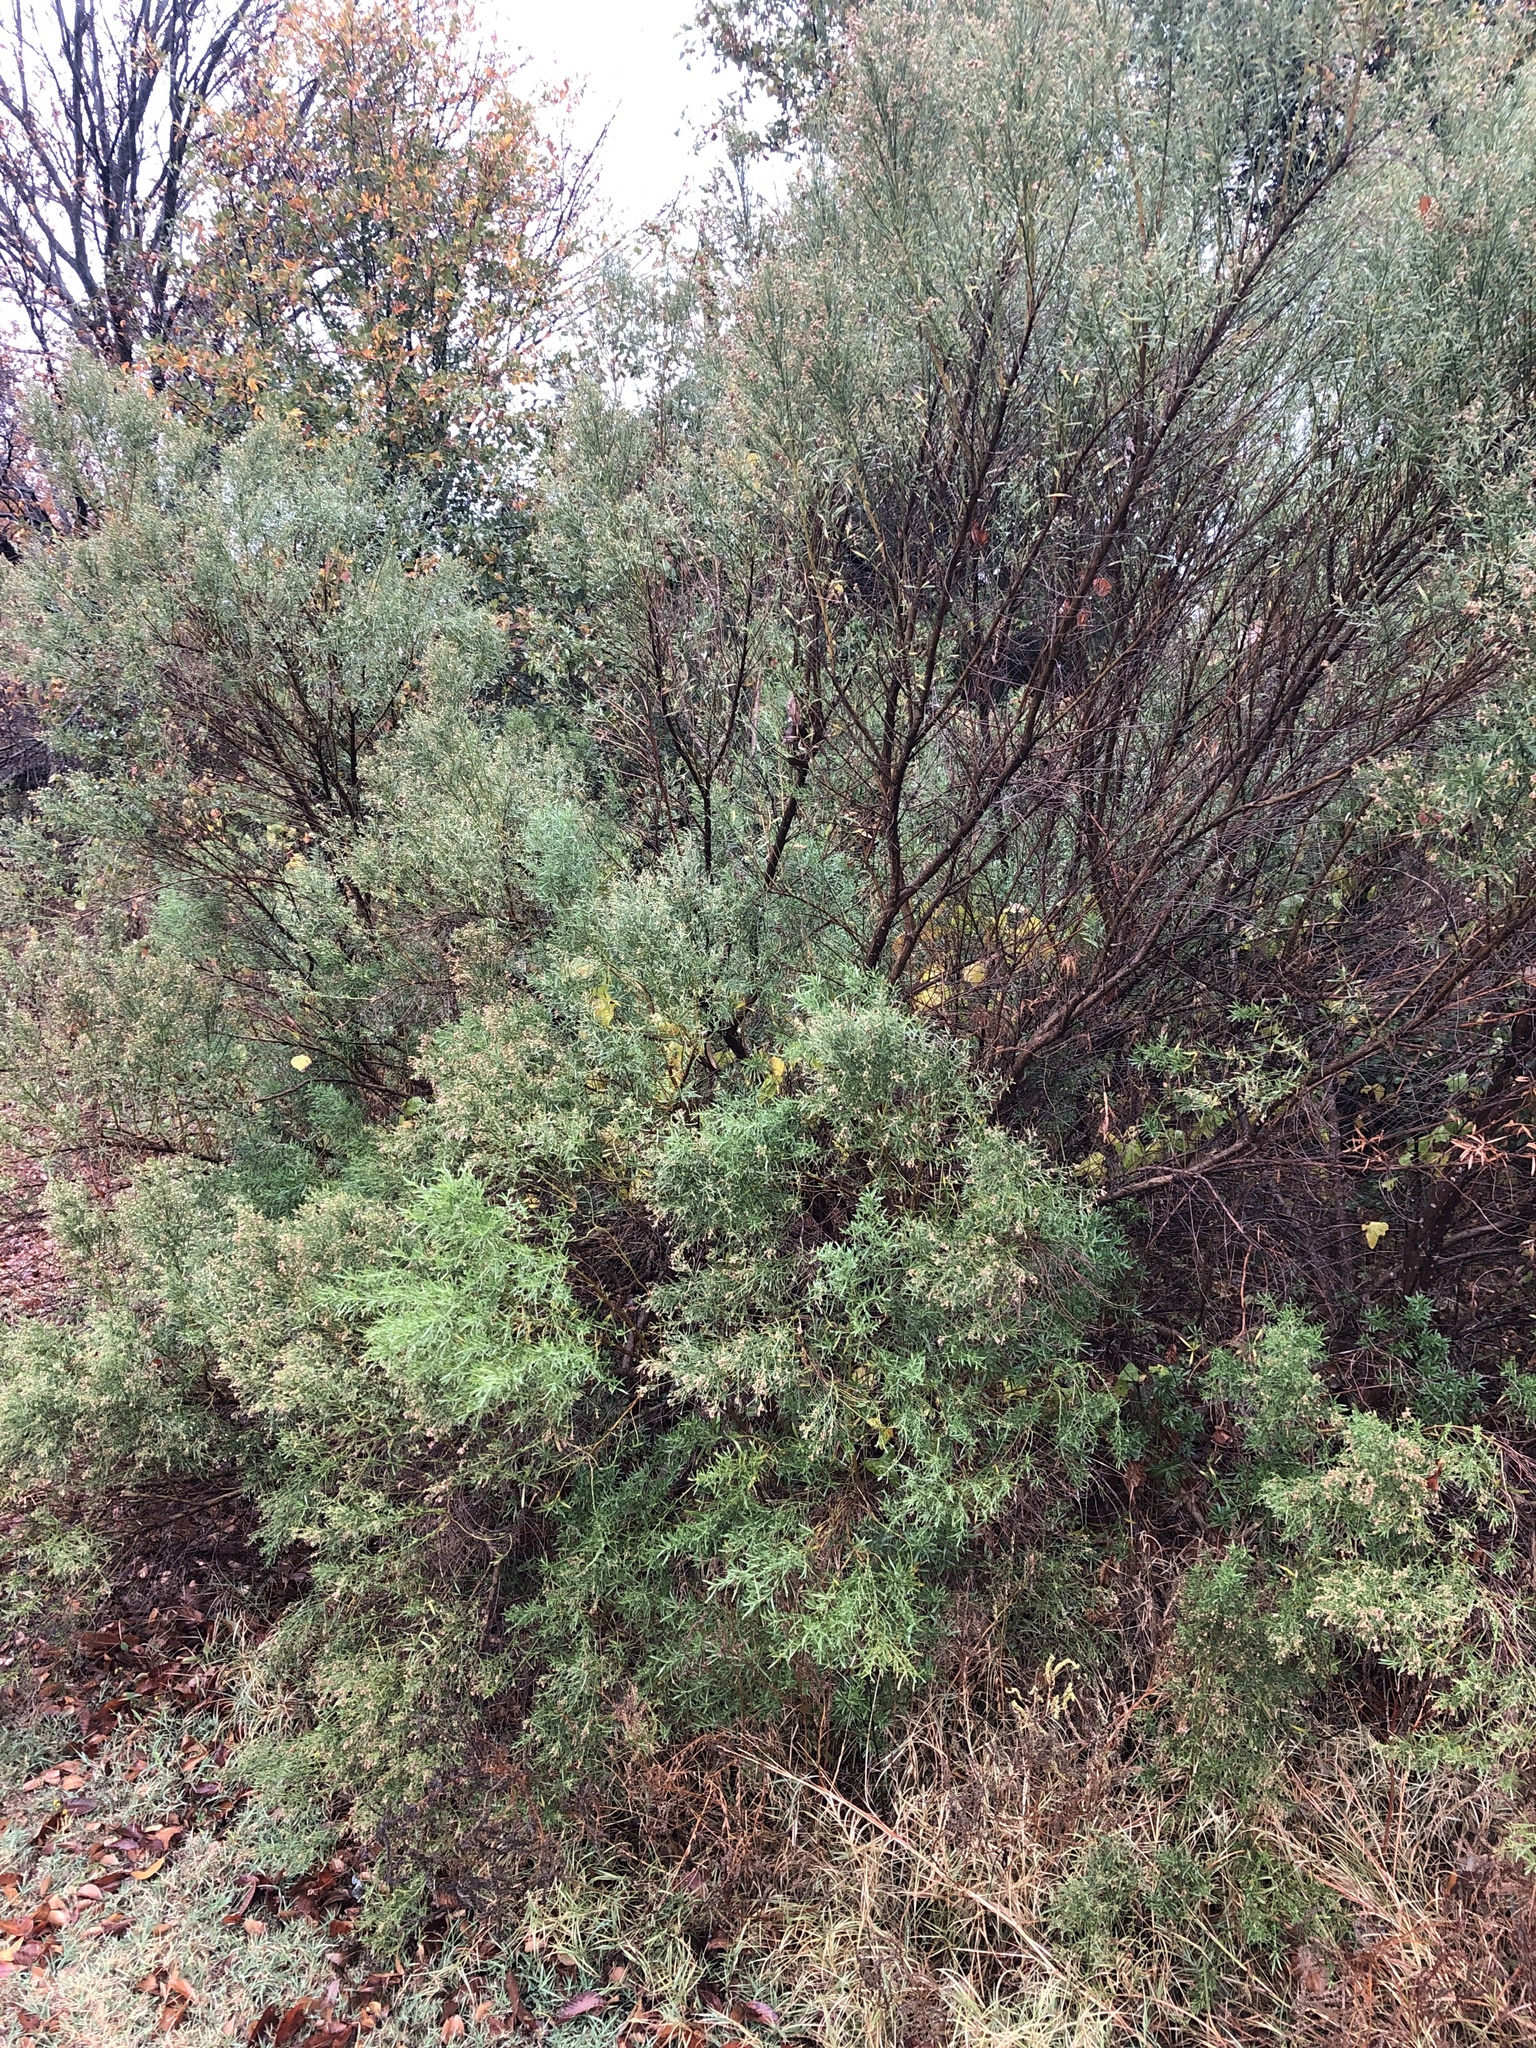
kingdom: Plantae
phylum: Tracheophyta
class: Magnoliopsida
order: Asterales
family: Asteraceae
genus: Baccharis
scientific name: Baccharis neglecta
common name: Roosevelt-weed
